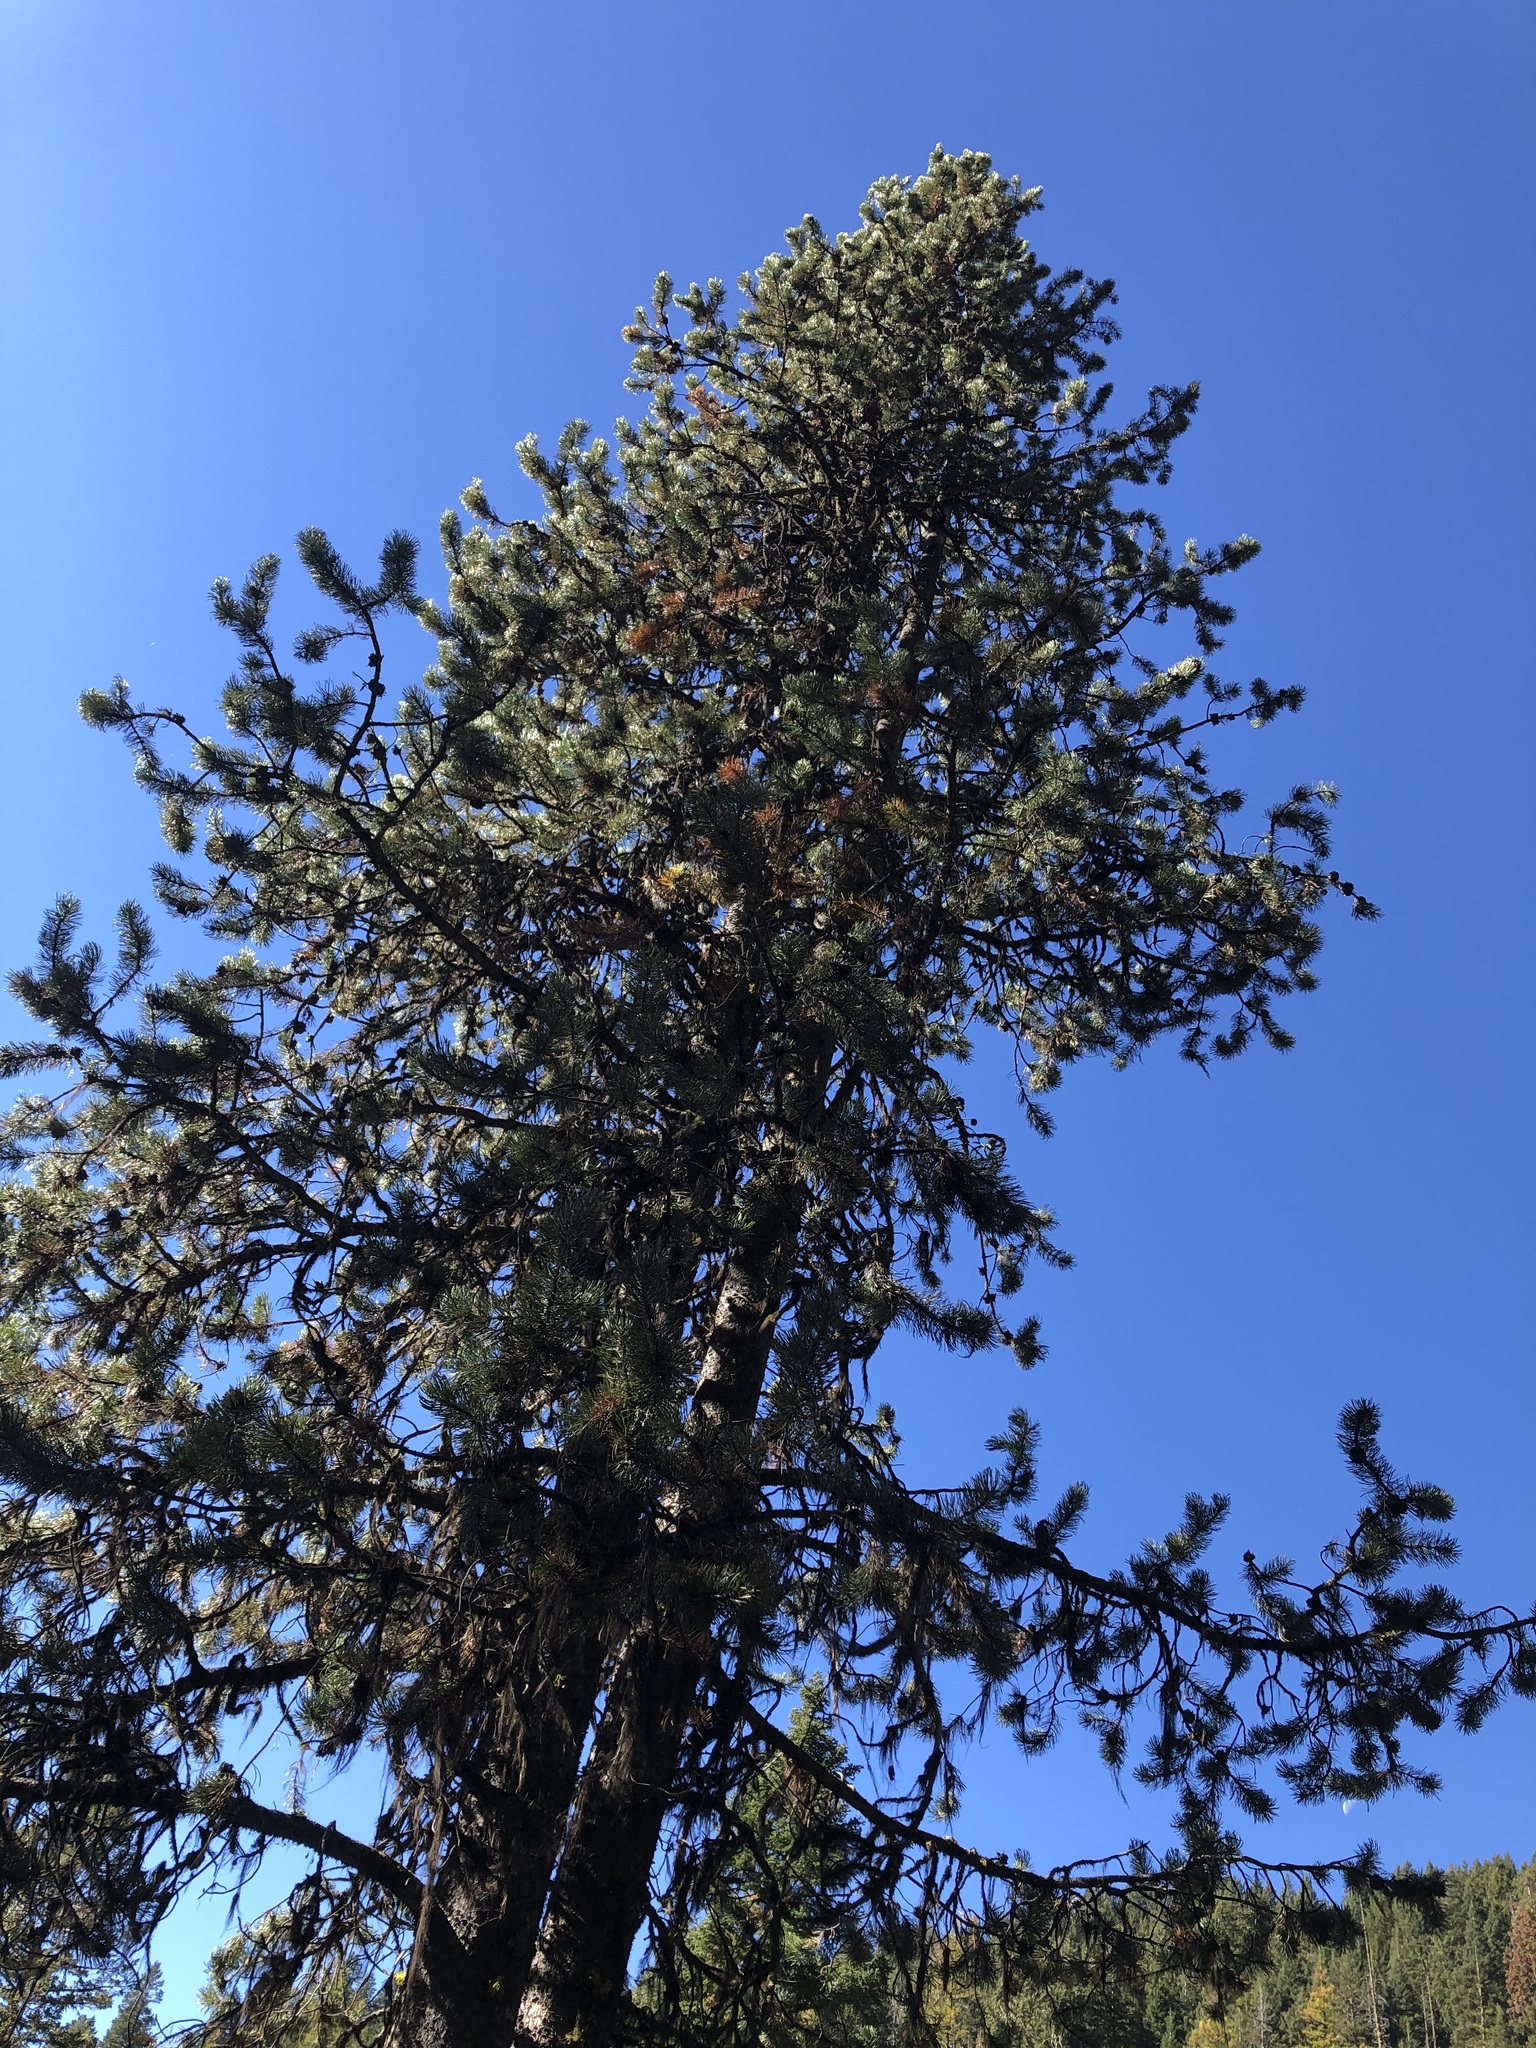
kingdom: Plantae
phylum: Tracheophyta
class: Pinopsida
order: Pinales
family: Pinaceae
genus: Pinus
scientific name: Pinus contorta
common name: Lodgepole pine
